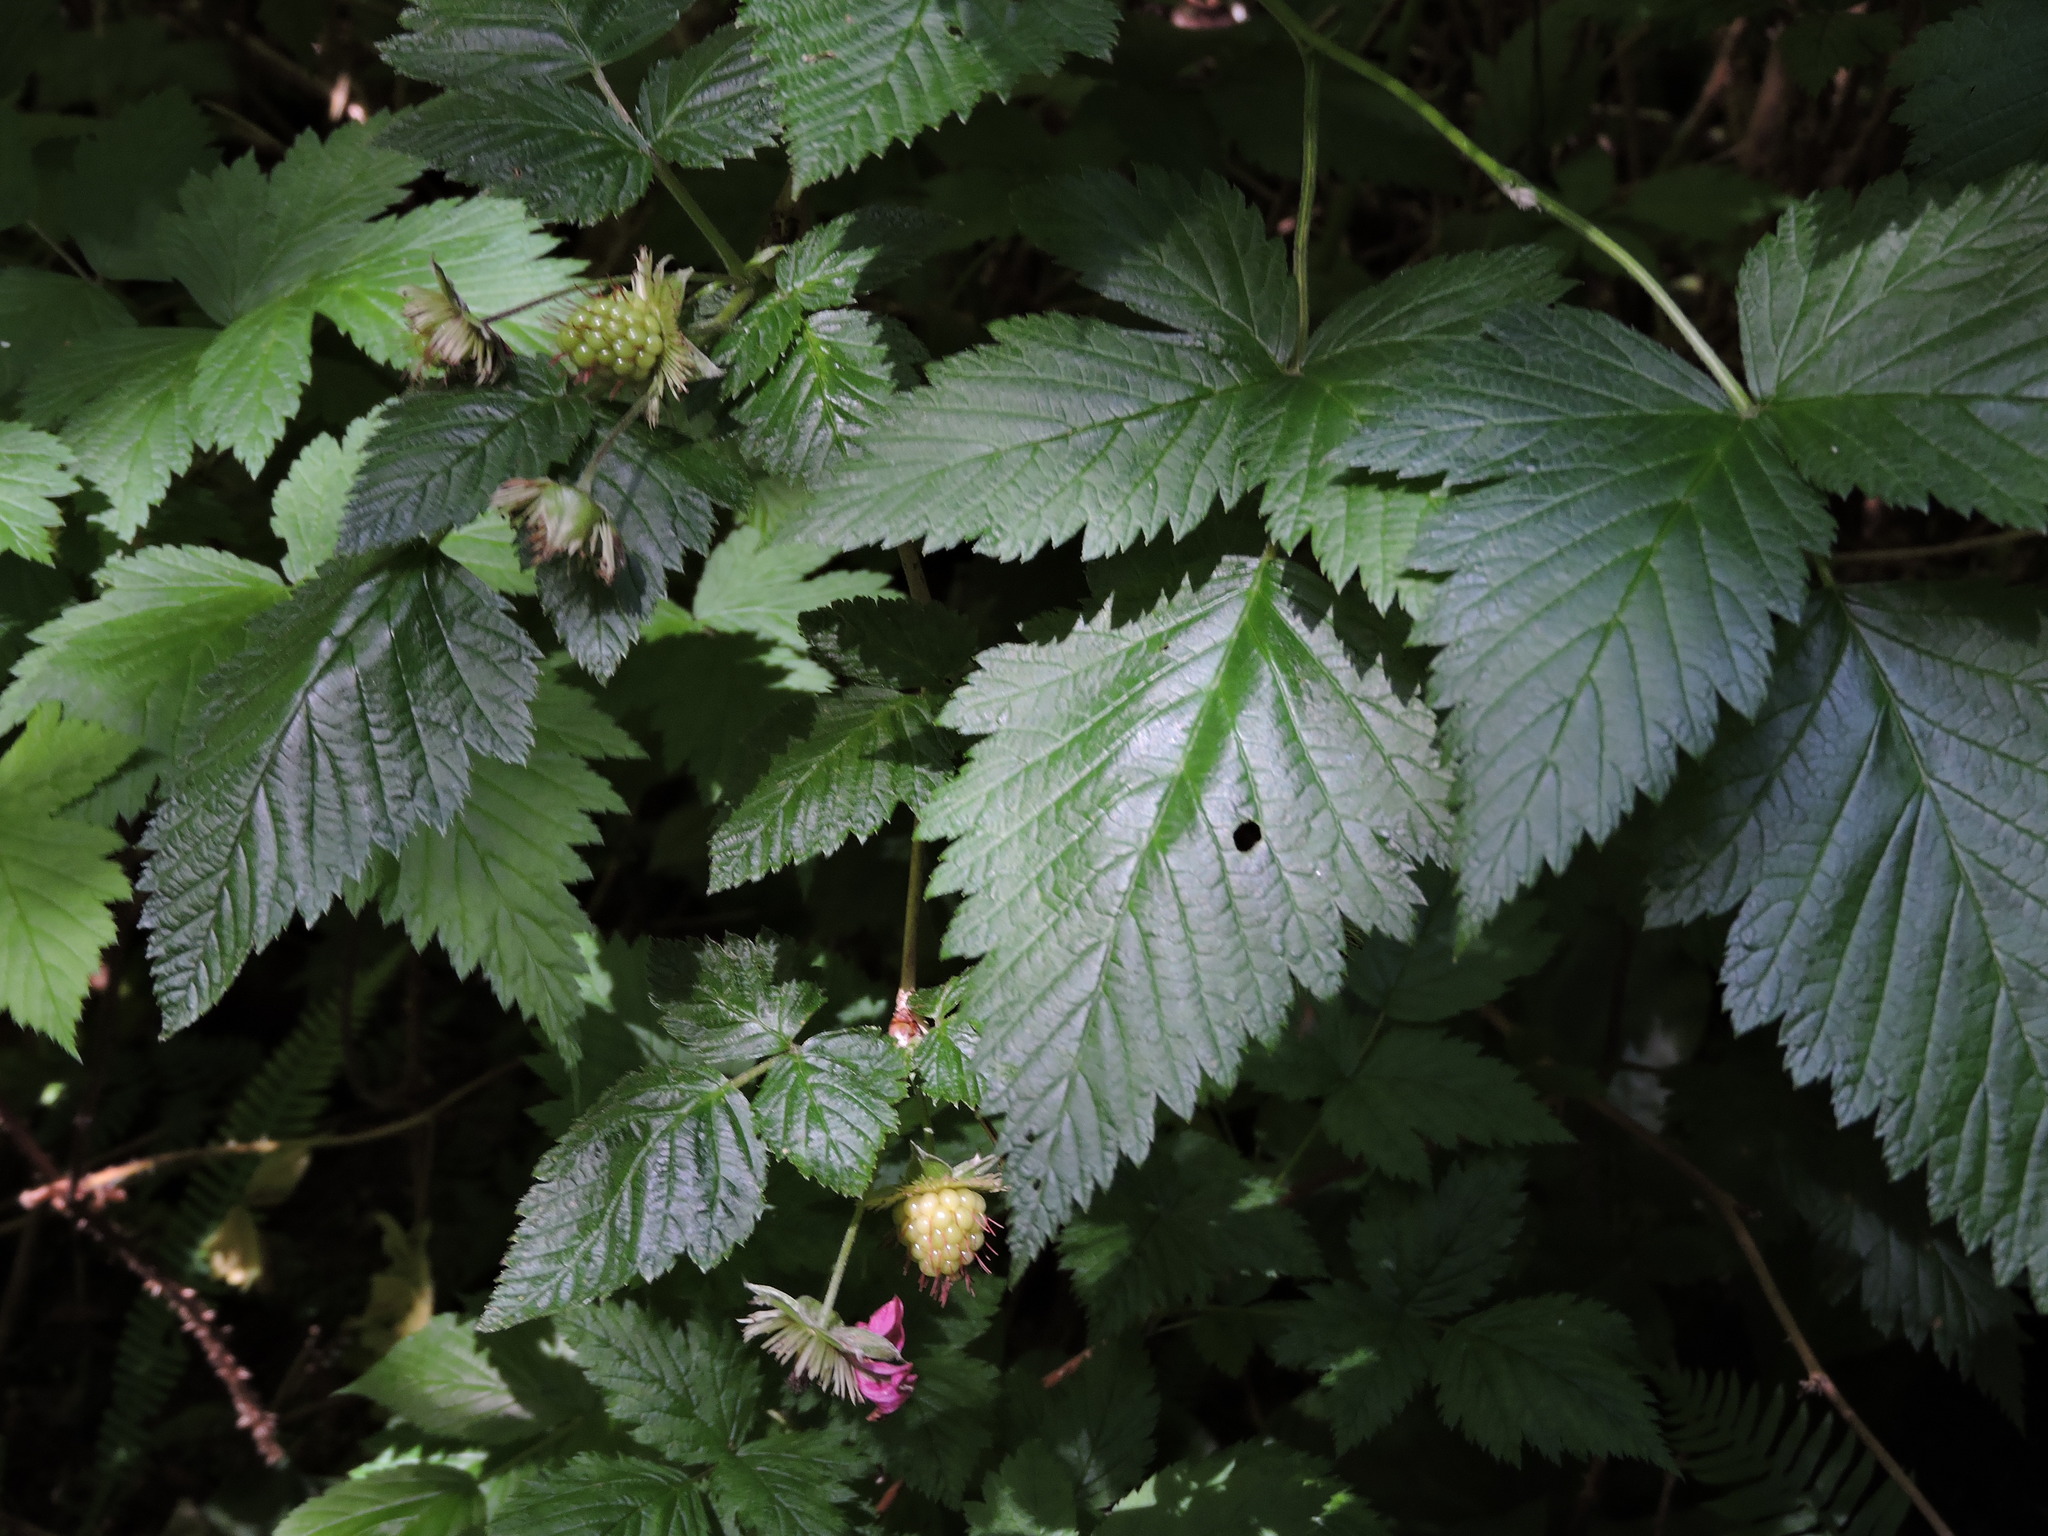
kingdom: Plantae
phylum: Tracheophyta
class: Magnoliopsida
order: Rosales
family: Rosaceae
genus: Rubus
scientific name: Rubus spectabilis
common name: Salmonberry
